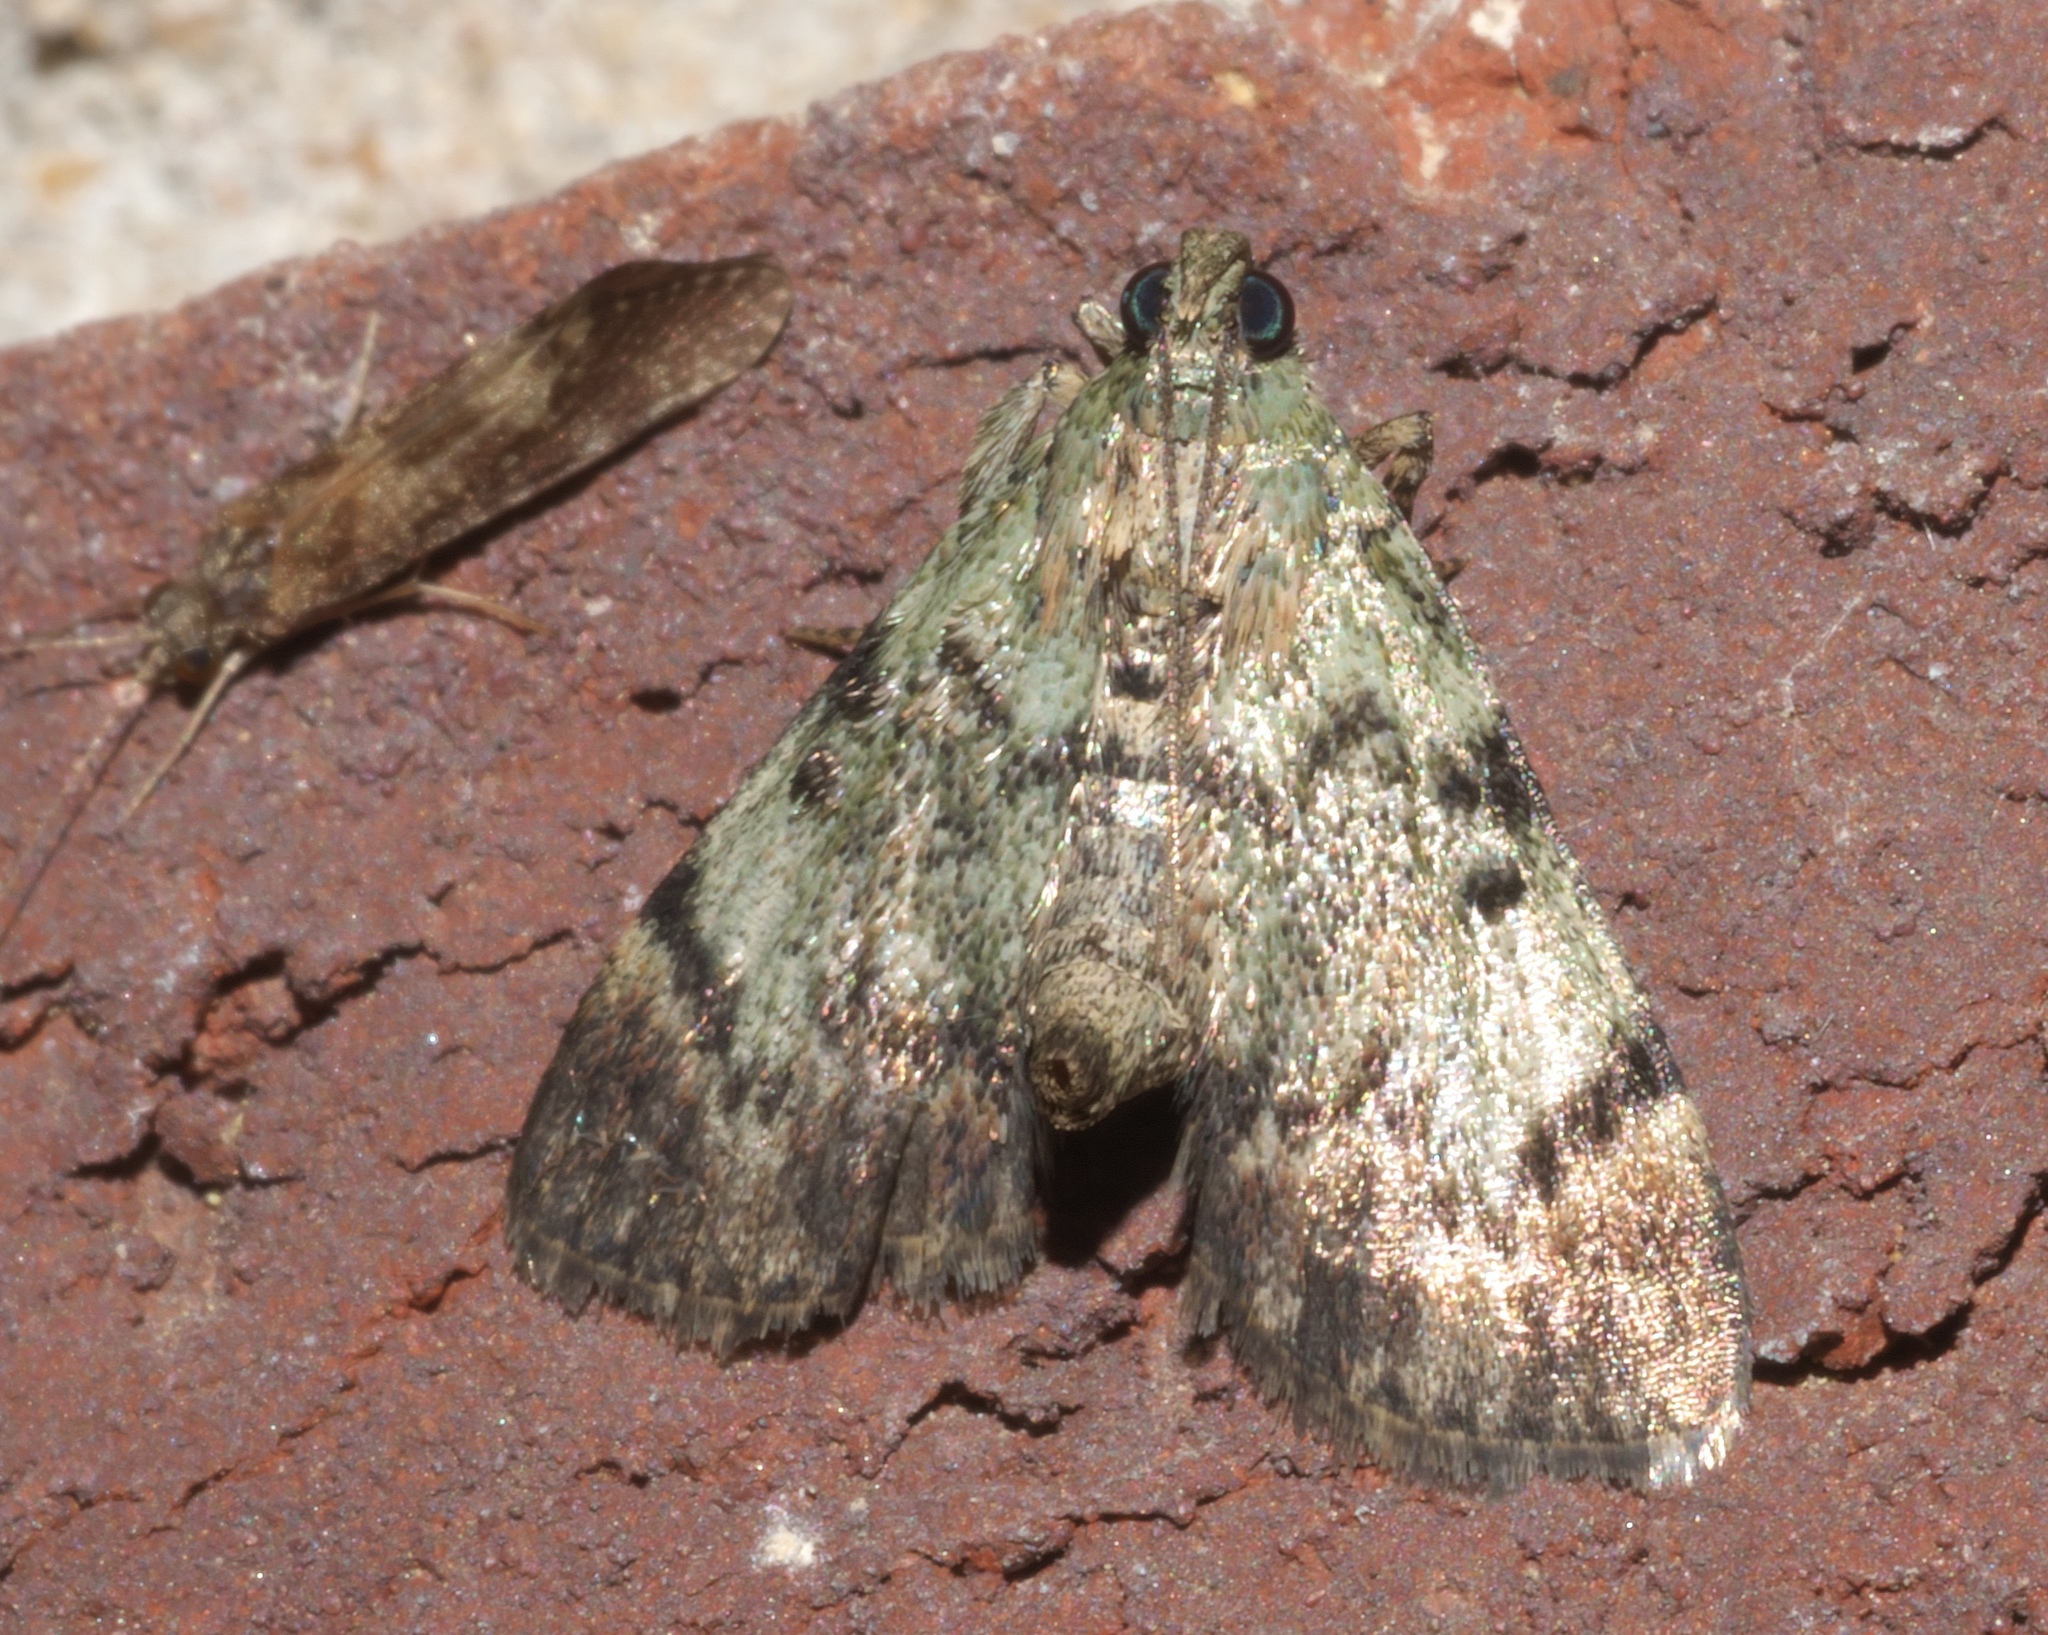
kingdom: Animalia
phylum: Arthropoda
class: Insecta
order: Lepidoptera
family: Pyralidae
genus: Epipaschia
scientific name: Epipaschia superatalis
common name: Dimorphic macalla moth
